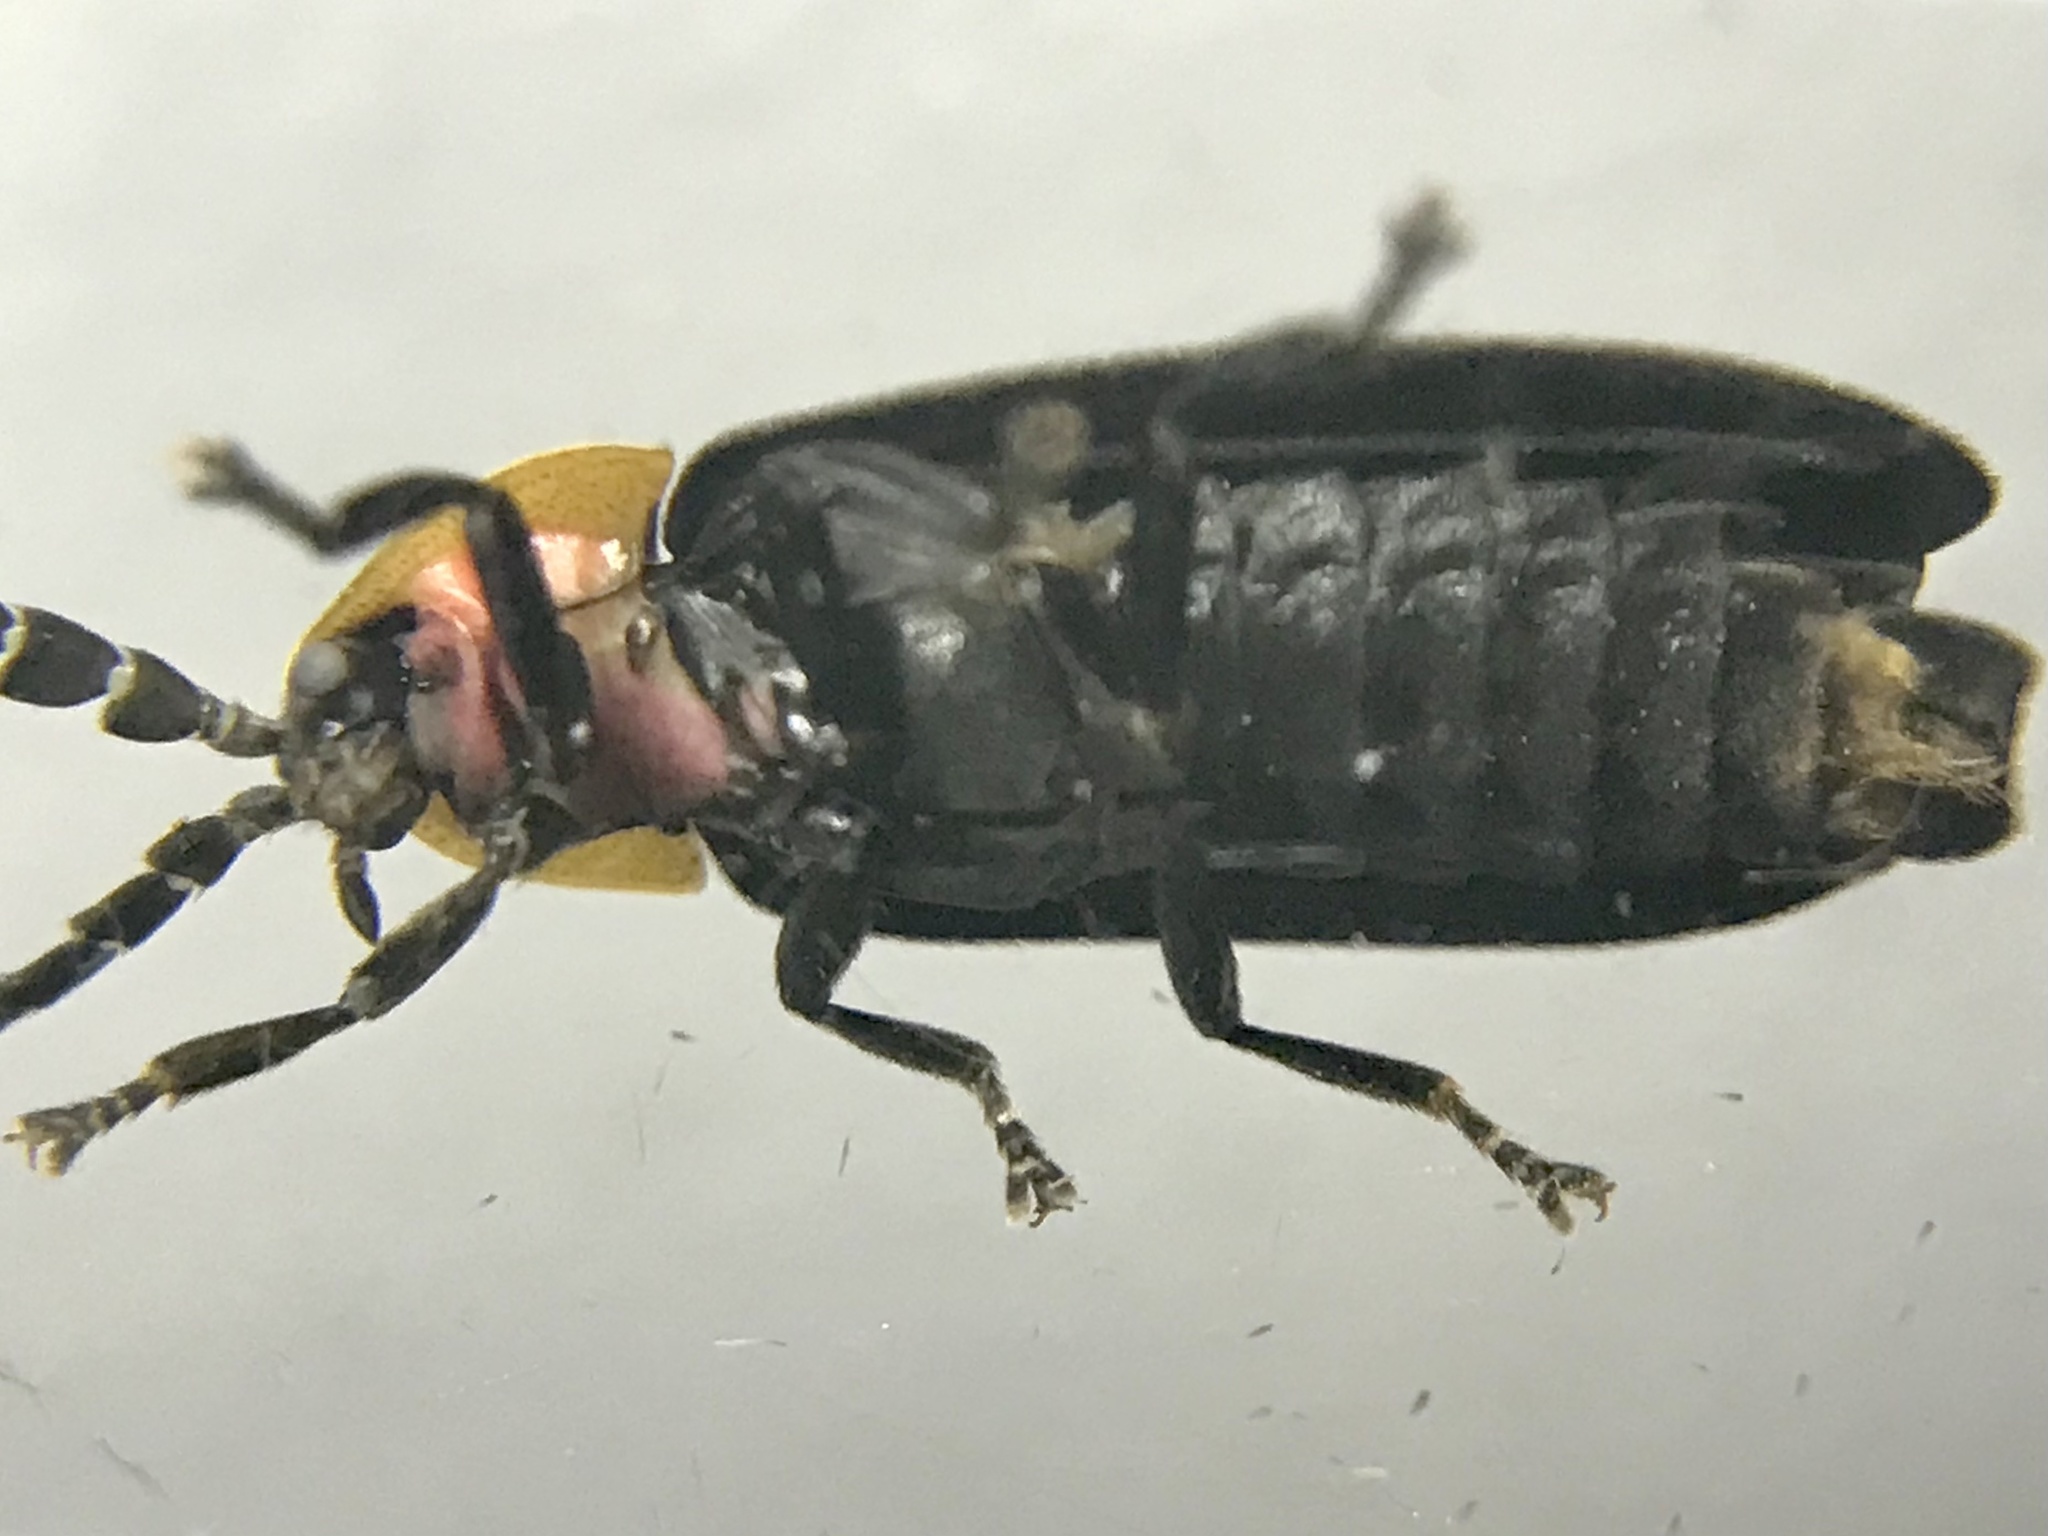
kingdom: Animalia
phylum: Arthropoda
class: Insecta
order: Coleoptera
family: Lampyridae
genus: Lucidota
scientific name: Lucidota atra
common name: Black firefly
